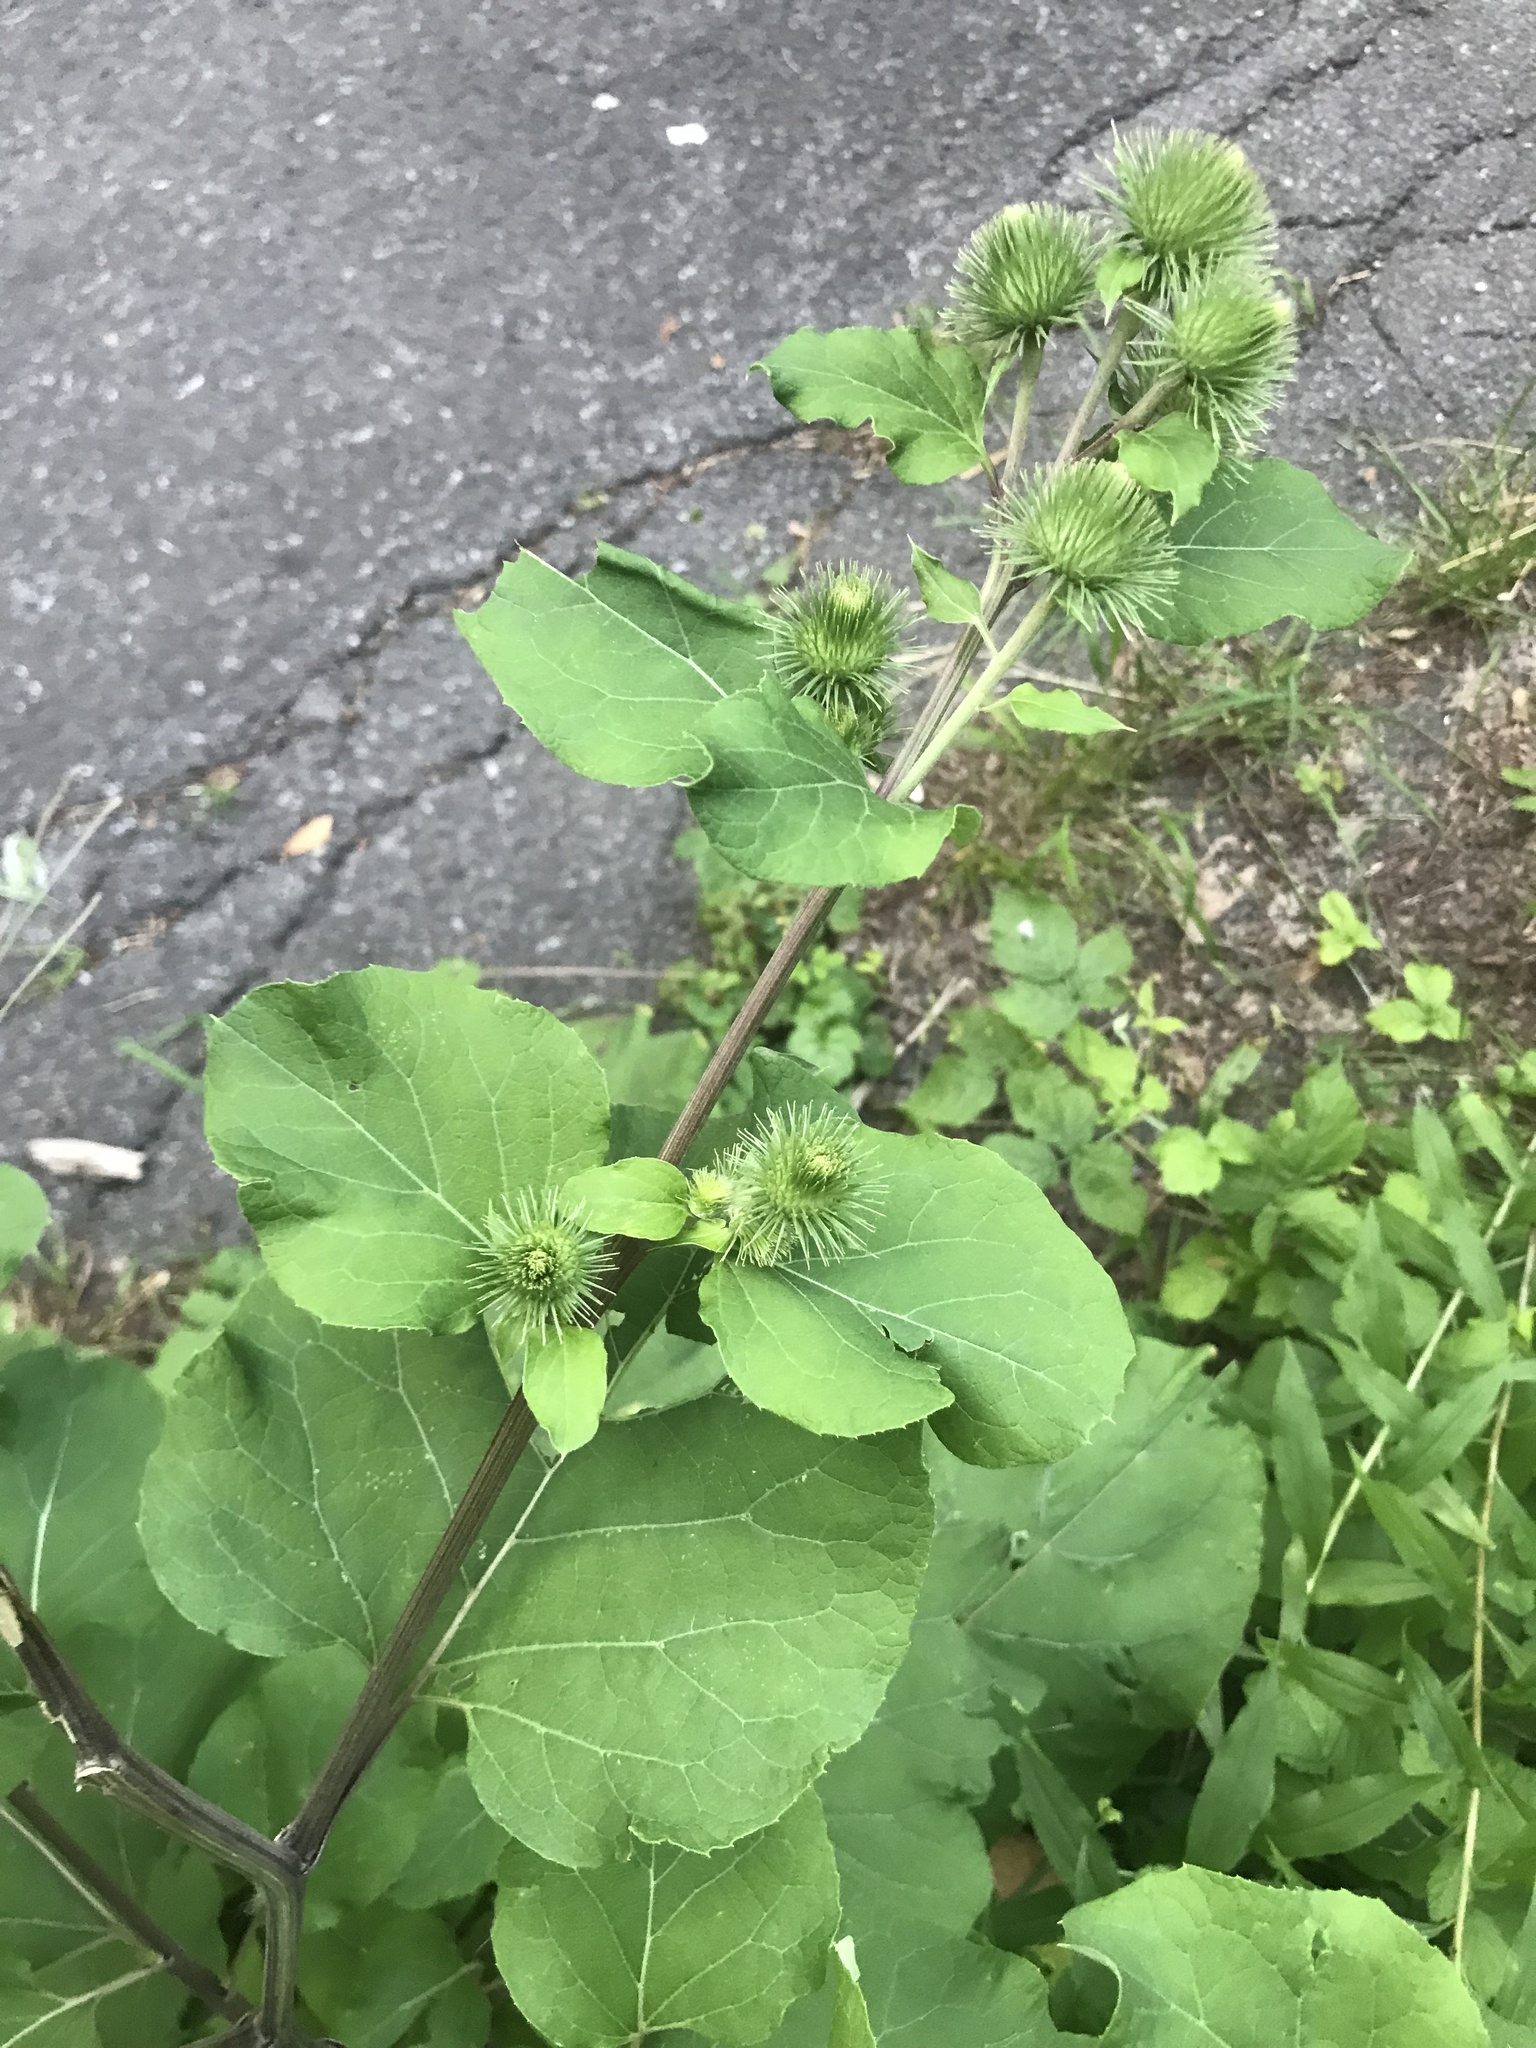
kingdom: Plantae
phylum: Tracheophyta
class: Magnoliopsida
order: Asterales
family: Asteraceae
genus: Arctium
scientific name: Arctium lappa
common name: Greater burdock
